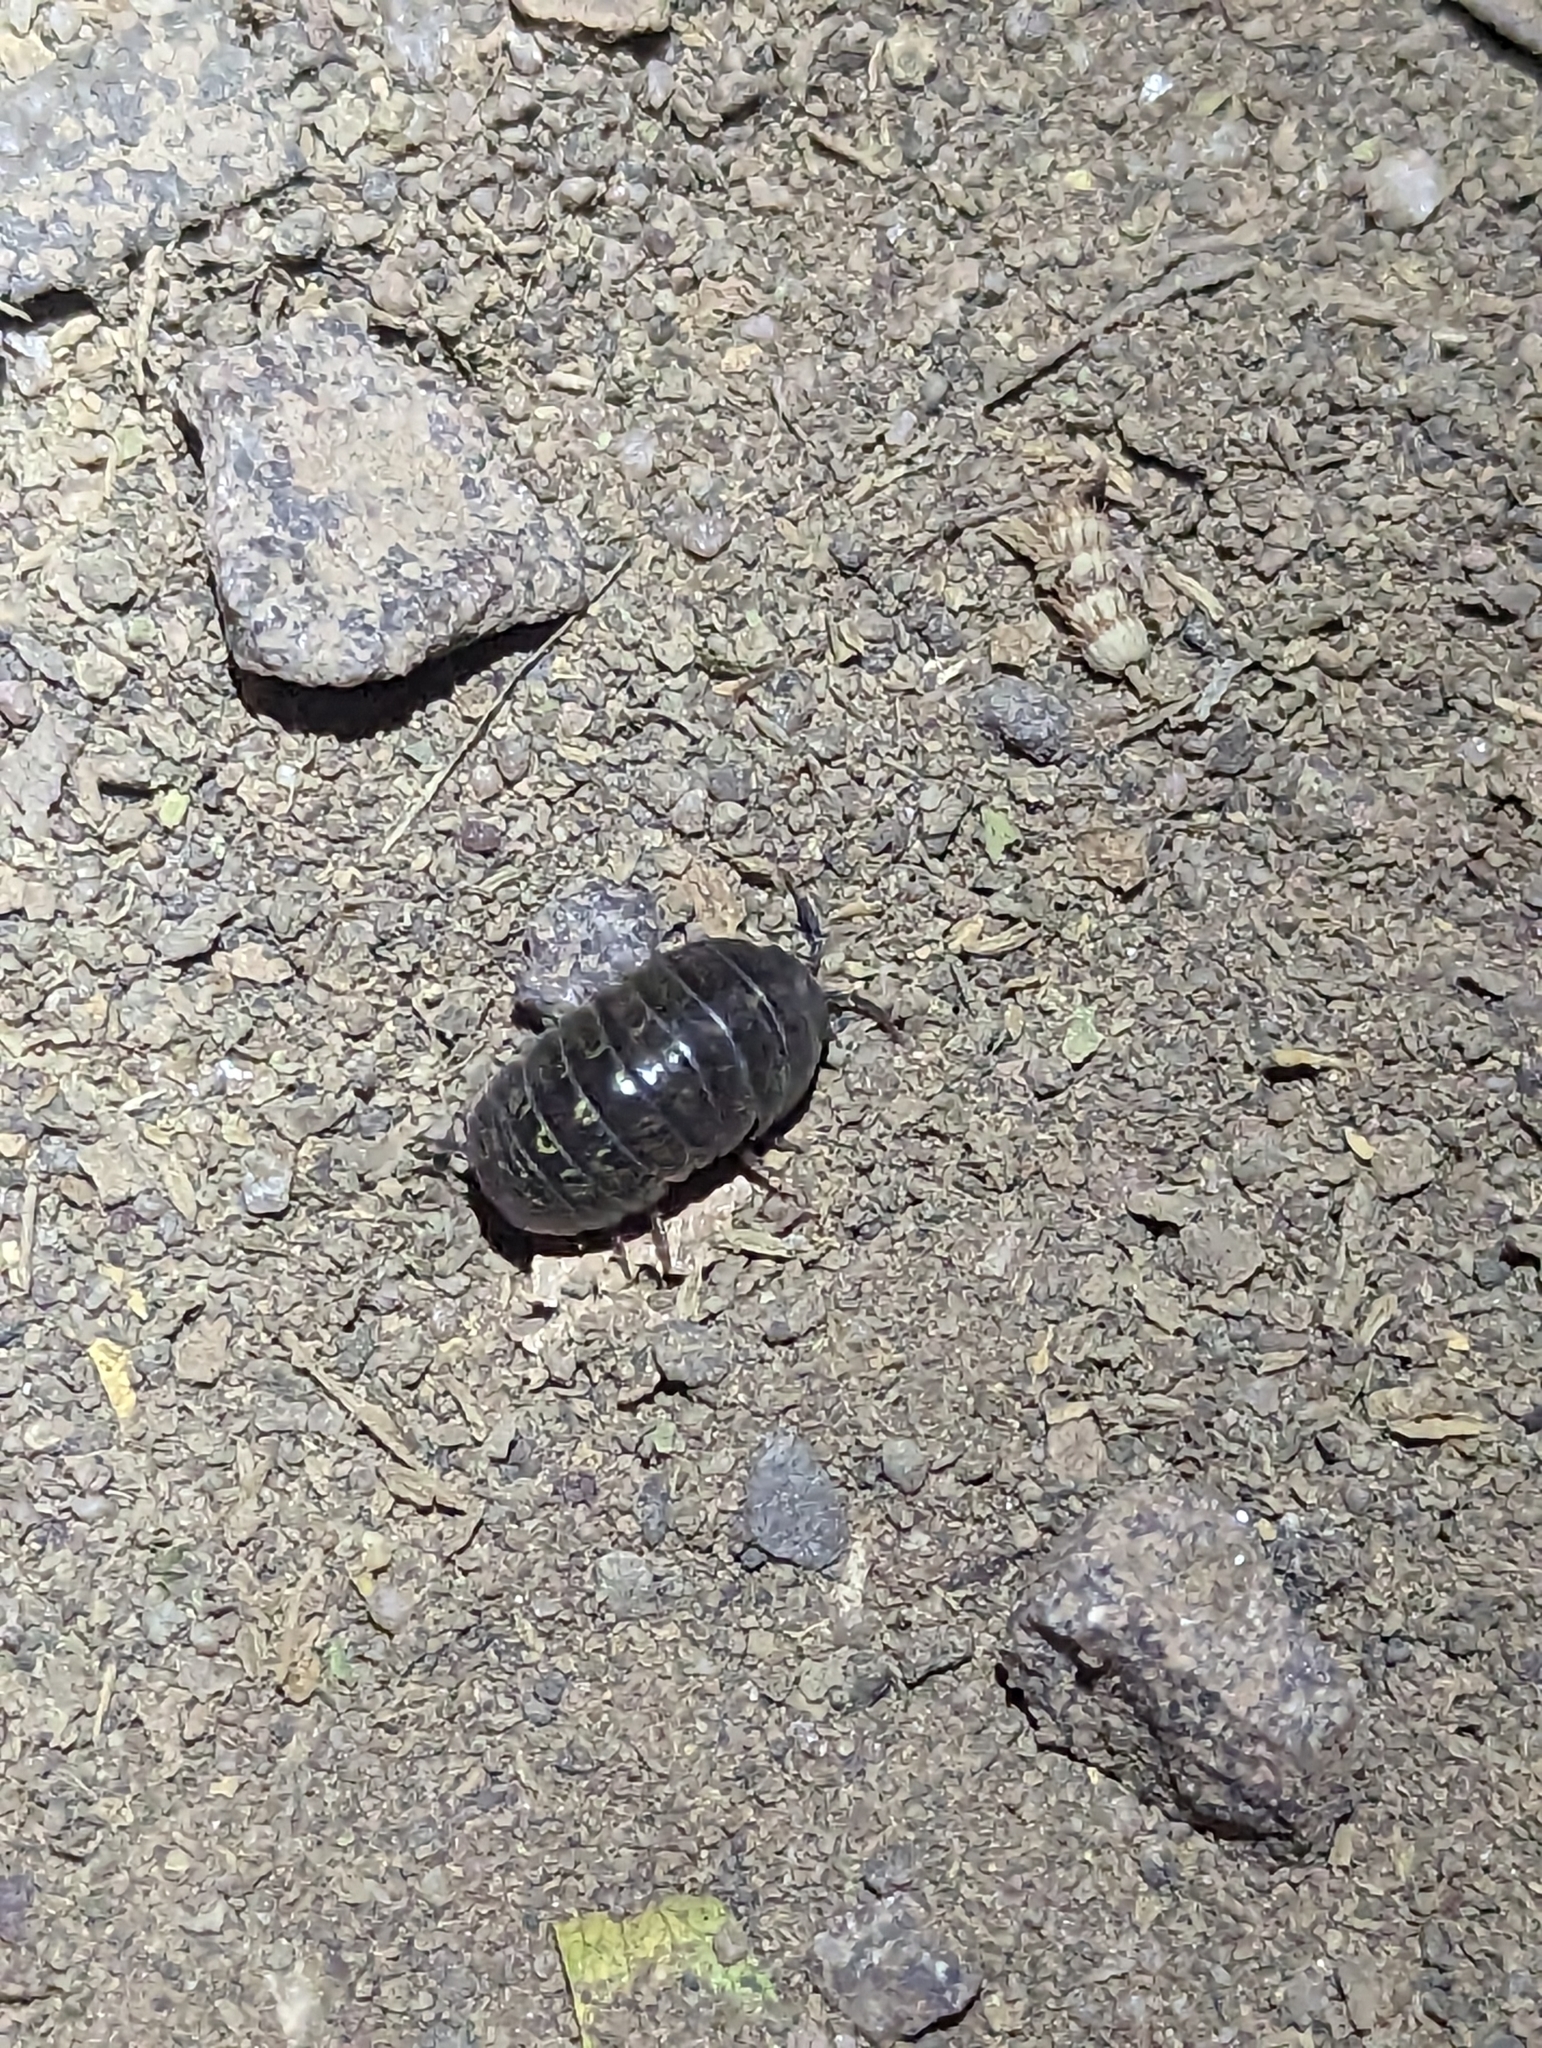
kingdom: Animalia
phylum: Arthropoda
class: Malacostraca
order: Isopoda
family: Armadillidiidae
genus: Armadillidium
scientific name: Armadillidium vulgare
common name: Common pill woodlouse
